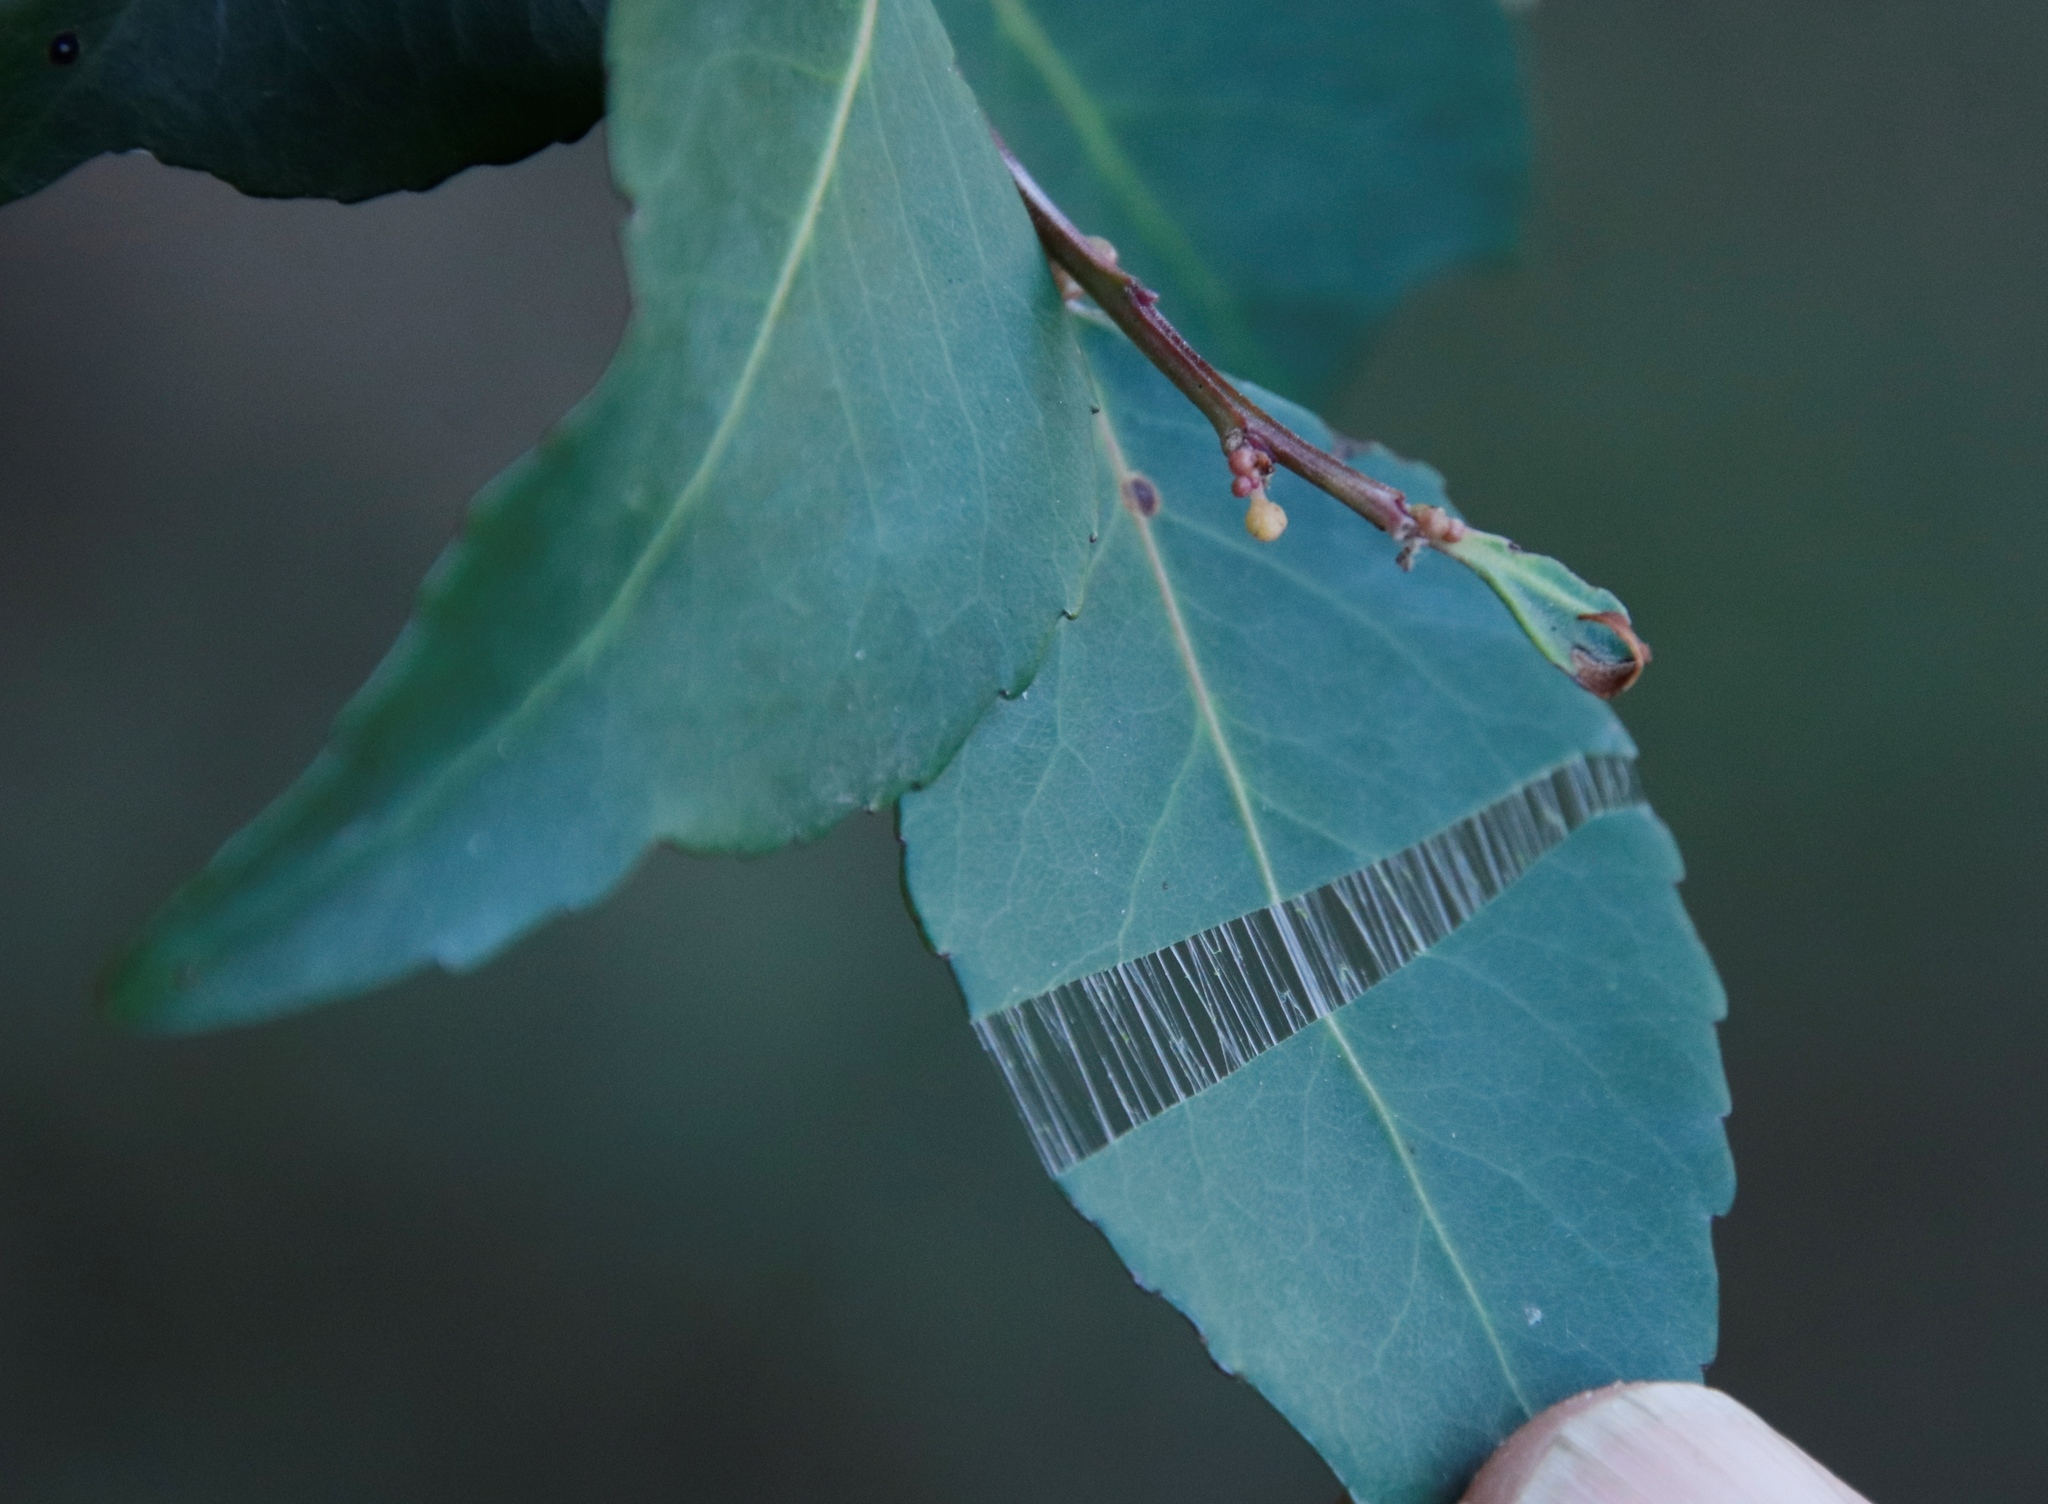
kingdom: Plantae
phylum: Tracheophyta
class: Magnoliopsida
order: Celastrales
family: Celastraceae
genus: Gymnosporia
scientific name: Gymnosporia acuminata
